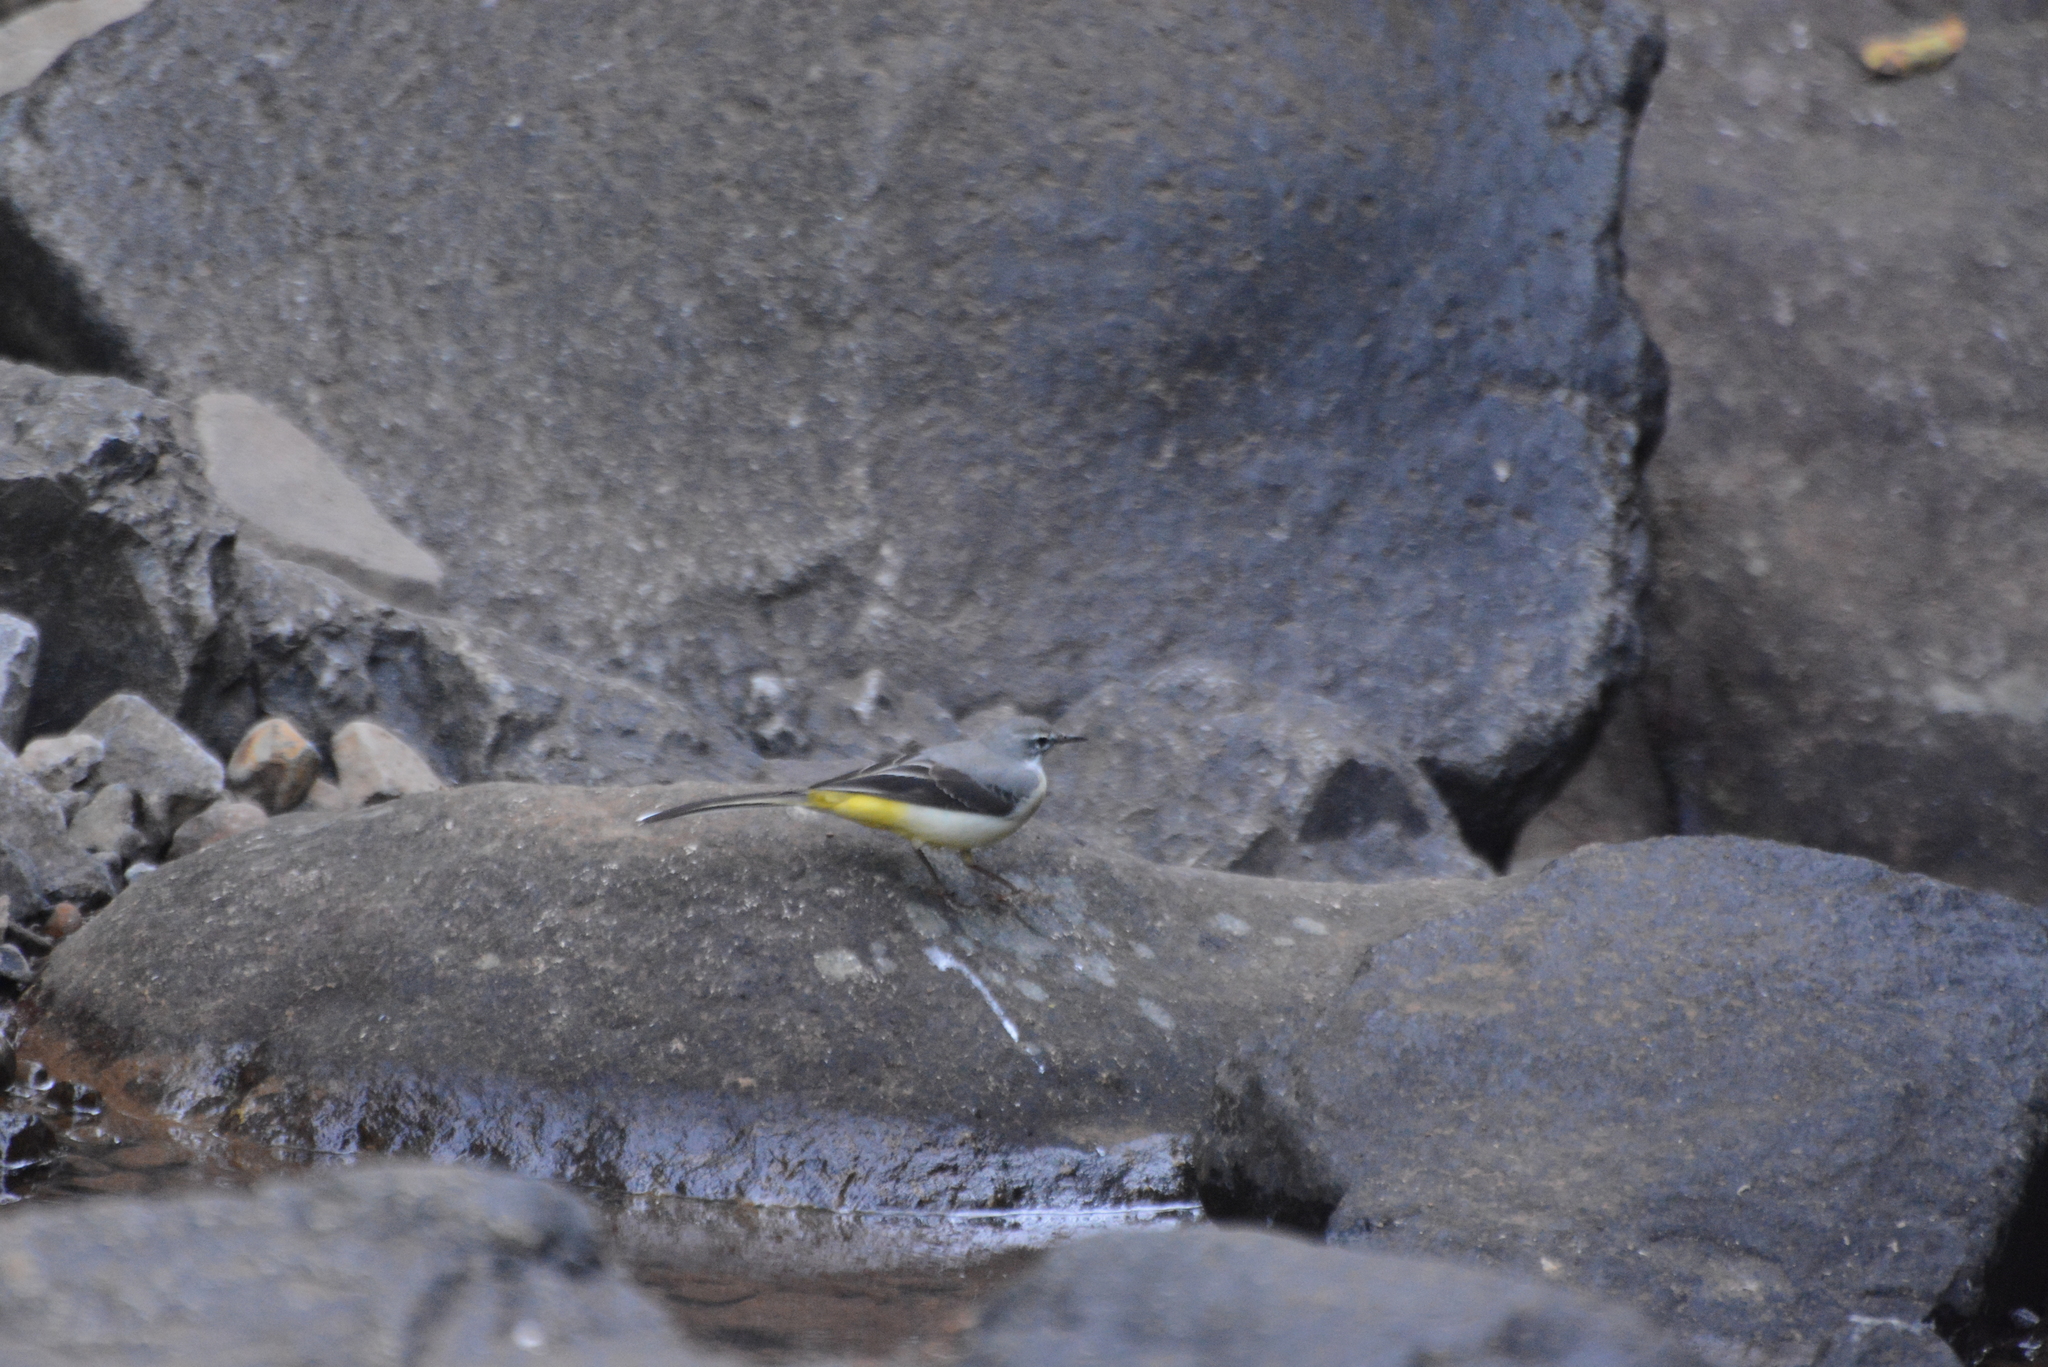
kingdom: Animalia
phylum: Chordata
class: Aves
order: Passeriformes
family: Motacillidae
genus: Motacilla
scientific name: Motacilla cinerea
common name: Grey wagtail
